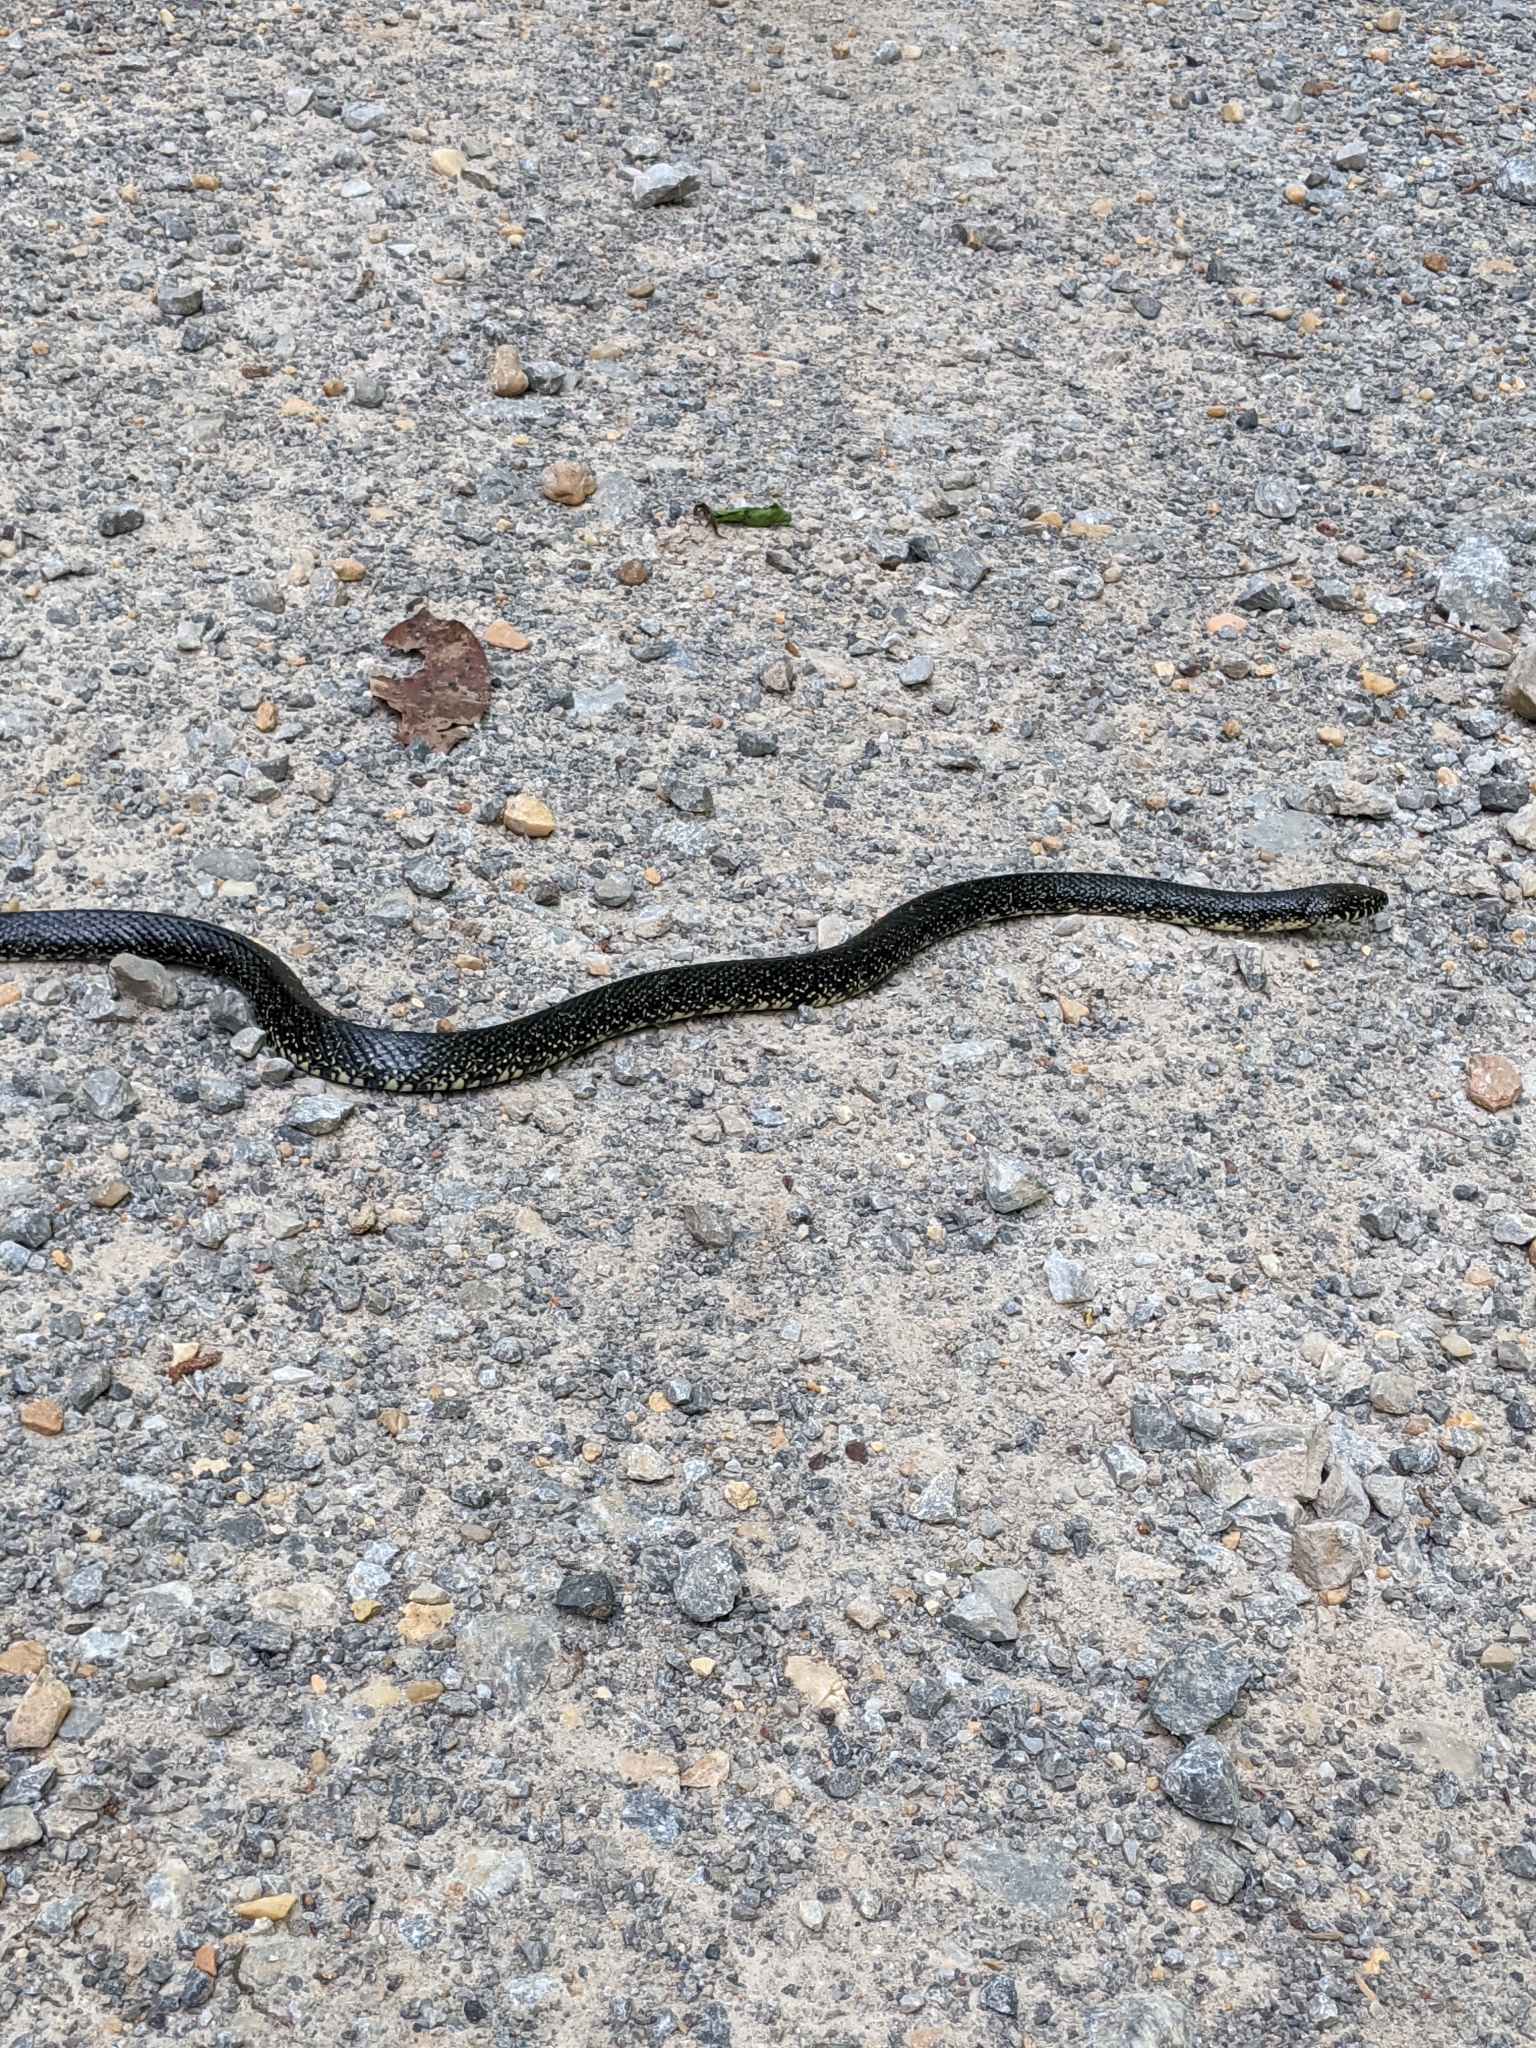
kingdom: Animalia
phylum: Chordata
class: Squamata
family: Colubridae
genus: Lampropeltis
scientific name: Lampropeltis nigra
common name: Black kingsnake
